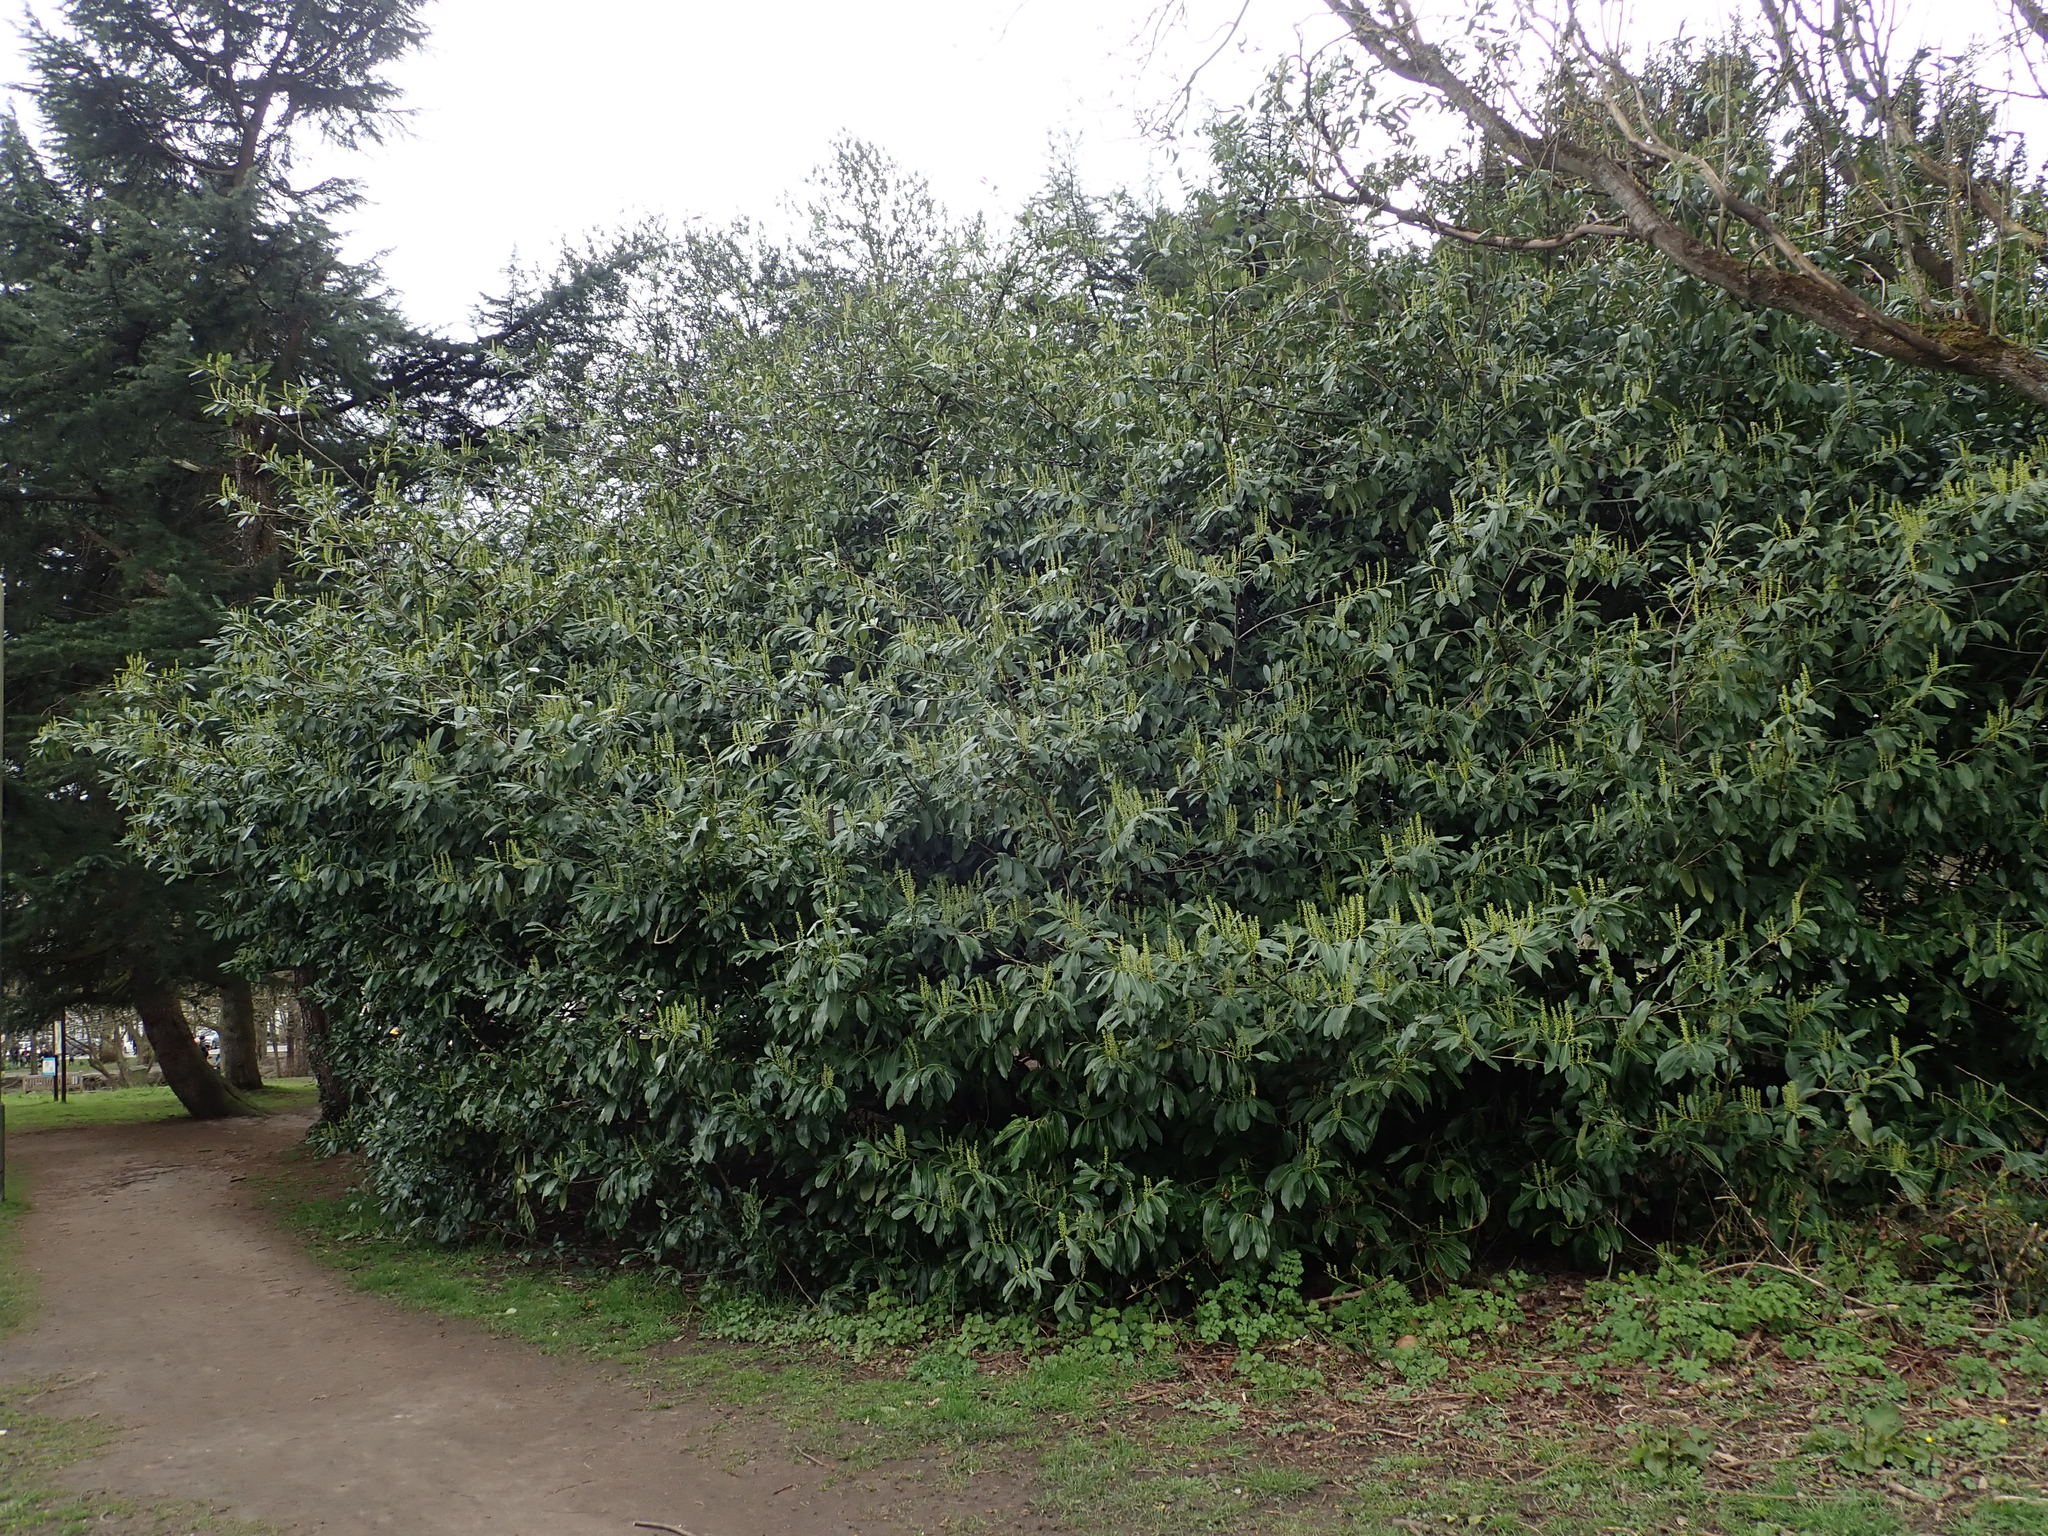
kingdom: Plantae
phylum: Tracheophyta
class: Magnoliopsida
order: Rosales
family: Rosaceae
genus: Prunus
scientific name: Prunus laurocerasus
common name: Cherry laurel
